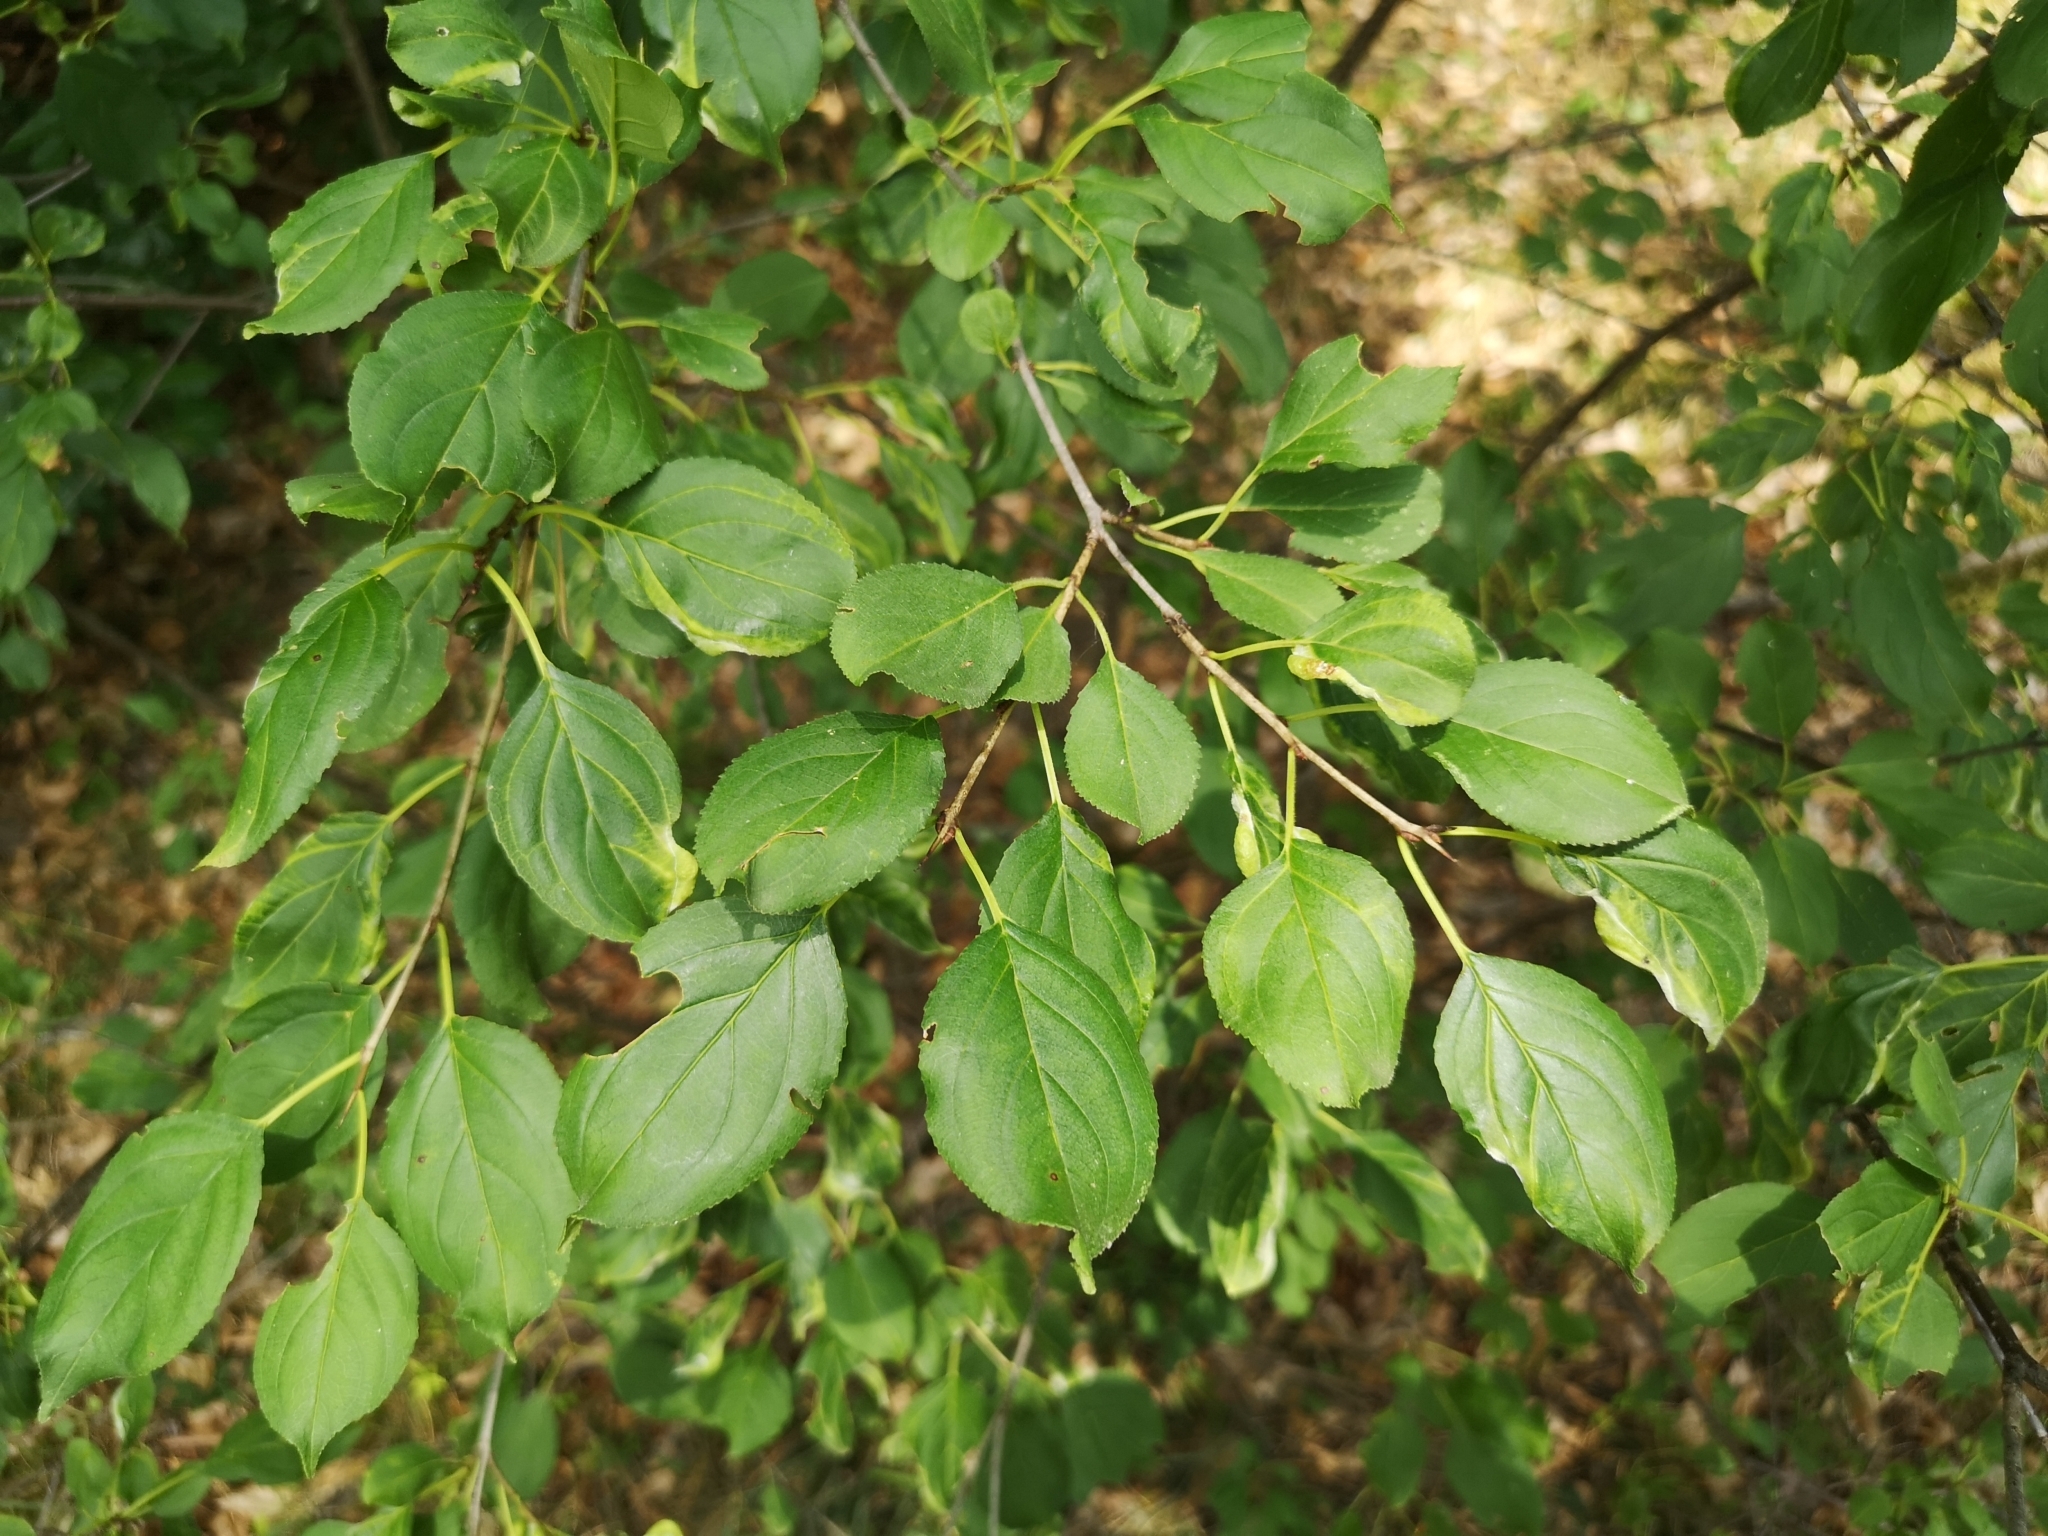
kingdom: Plantae
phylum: Tracheophyta
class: Magnoliopsida
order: Rosales
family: Rhamnaceae
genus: Rhamnus
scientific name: Rhamnus cathartica
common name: Common buckthorn
